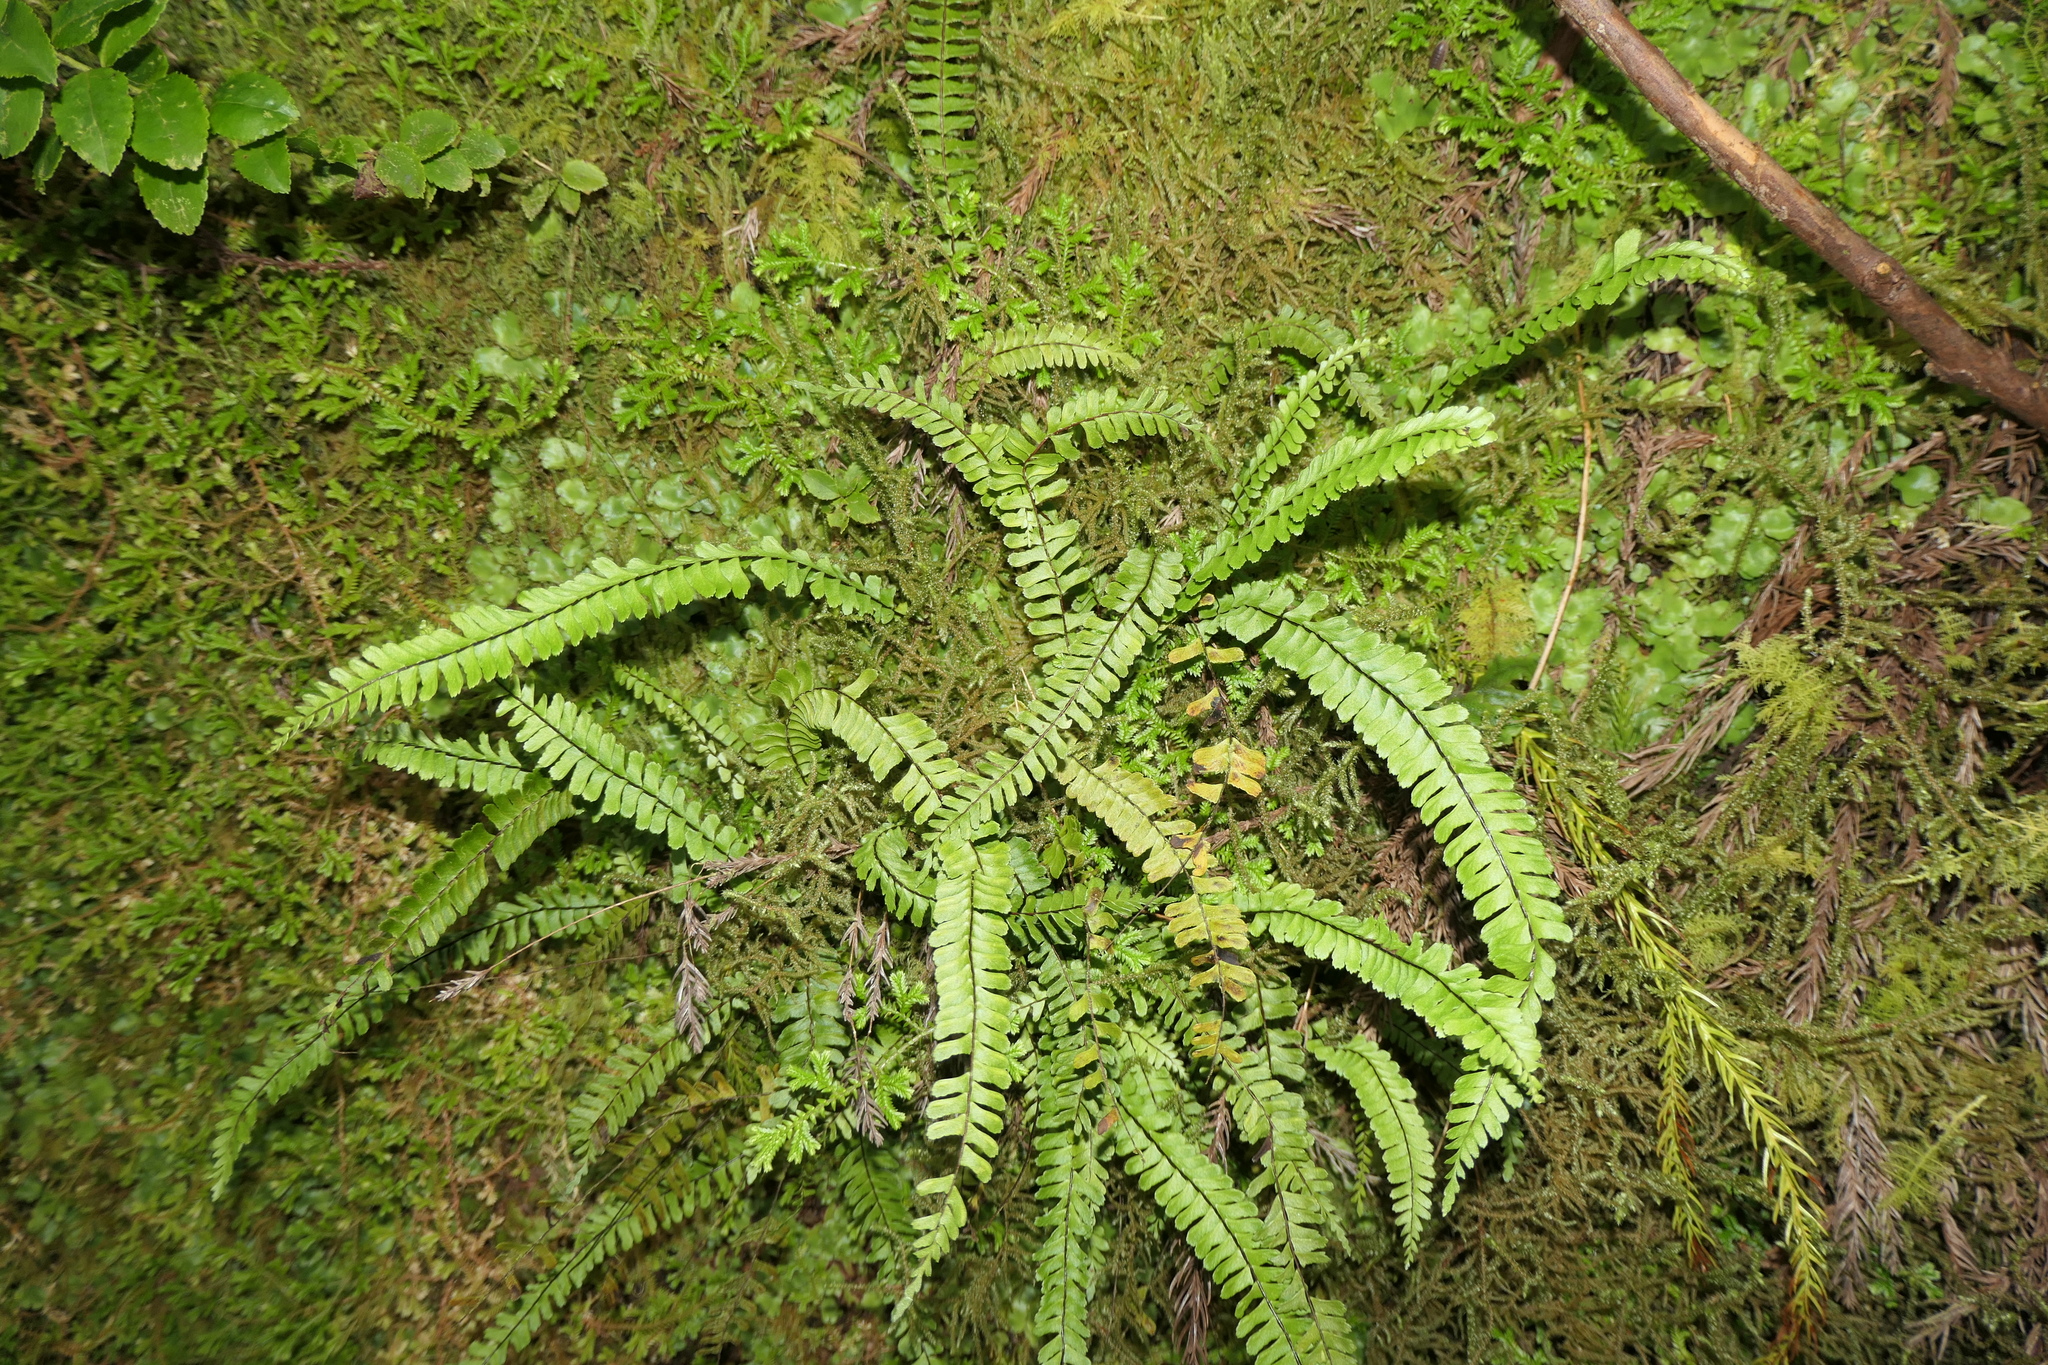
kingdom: Plantae
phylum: Tracheophyta
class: Polypodiopsida
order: Polypodiales
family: Aspleniaceae
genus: Asplenium
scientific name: Asplenium monanthes
